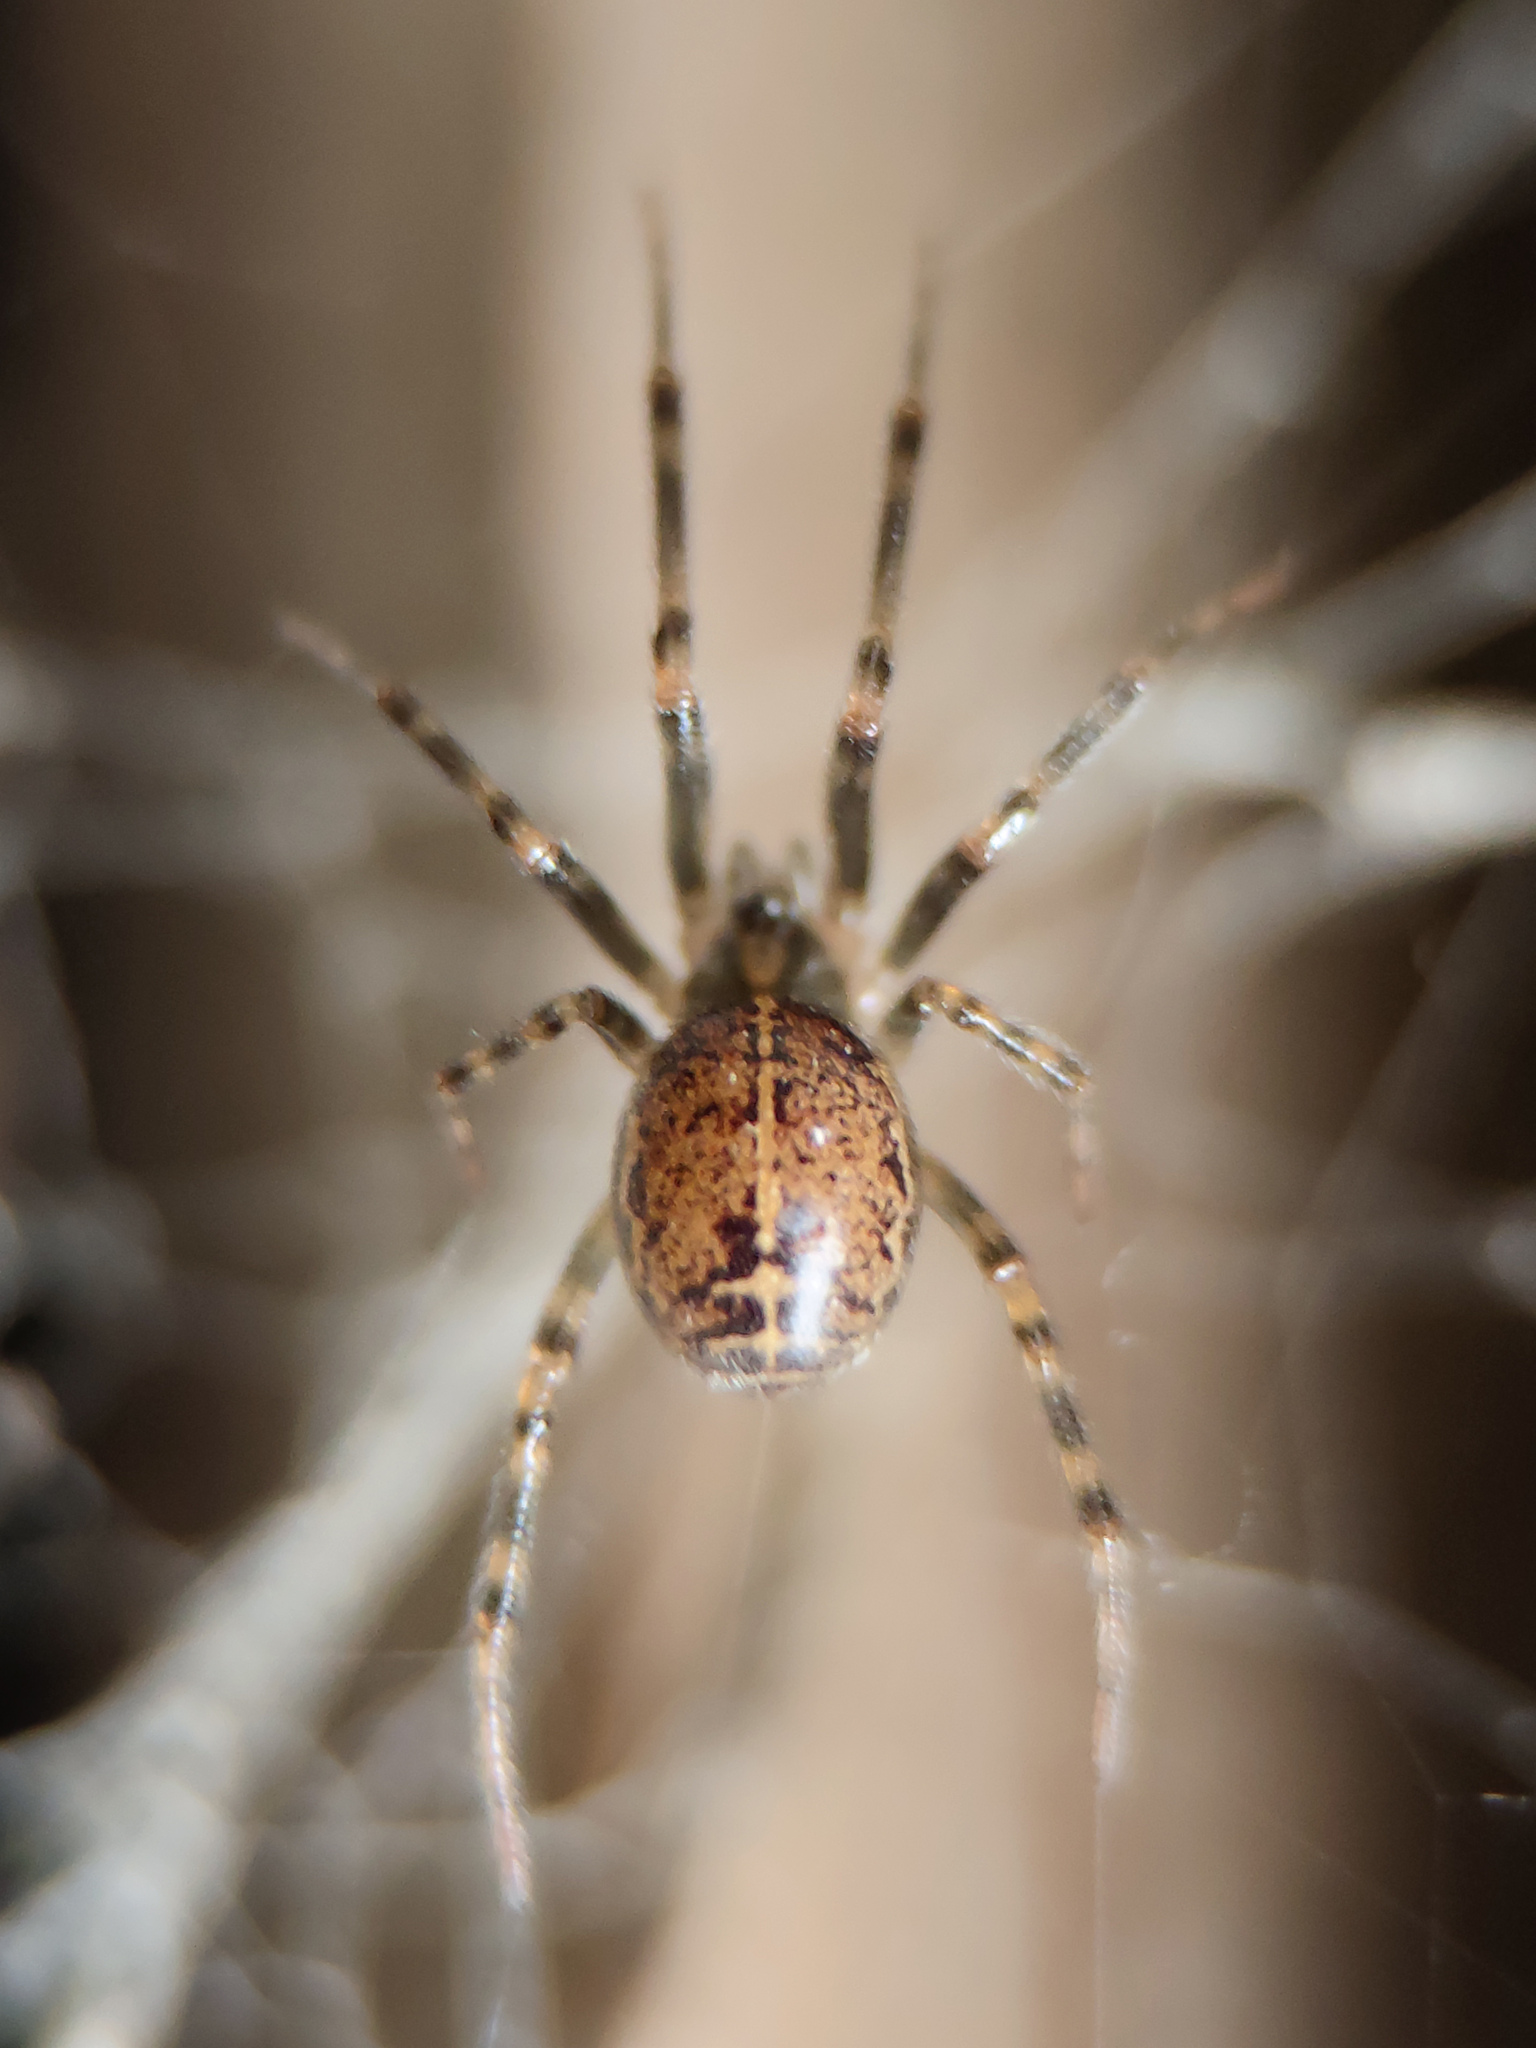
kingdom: Animalia
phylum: Arthropoda
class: Arachnida
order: Araneae
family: Theridiidae
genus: Steatoda
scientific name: Steatoda castanea
